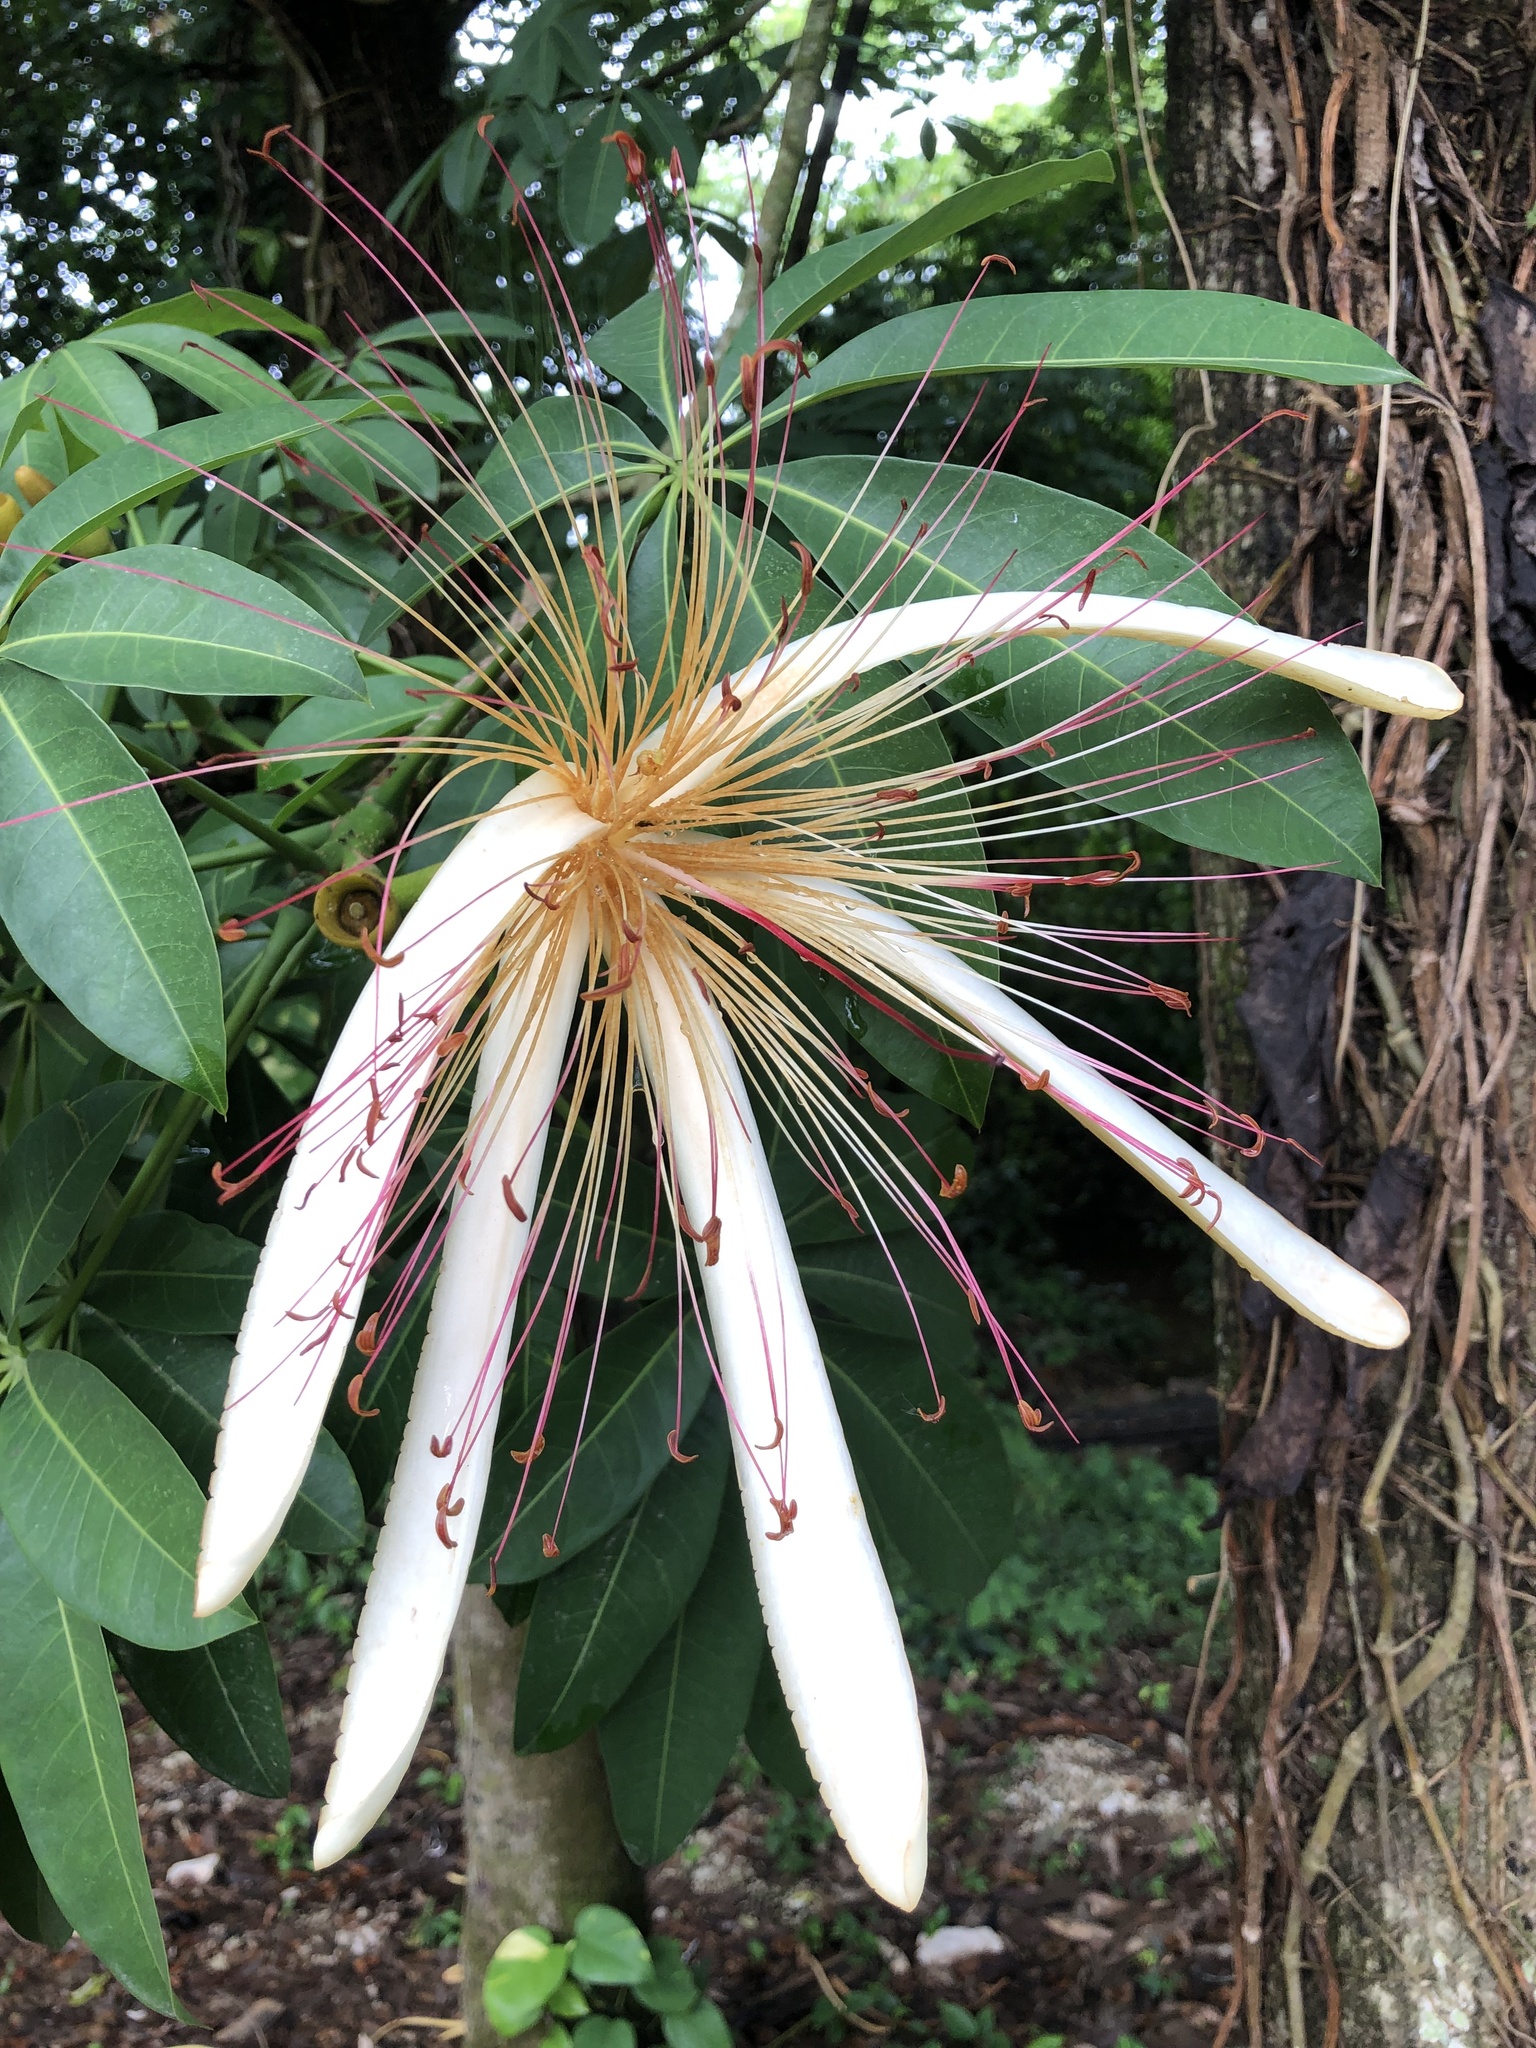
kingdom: Plantae
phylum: Tracheophyta
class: Magnoliopsida
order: Malvales
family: Malvaceae
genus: Pachira
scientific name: Pachira aquatica
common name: Provision-tree
